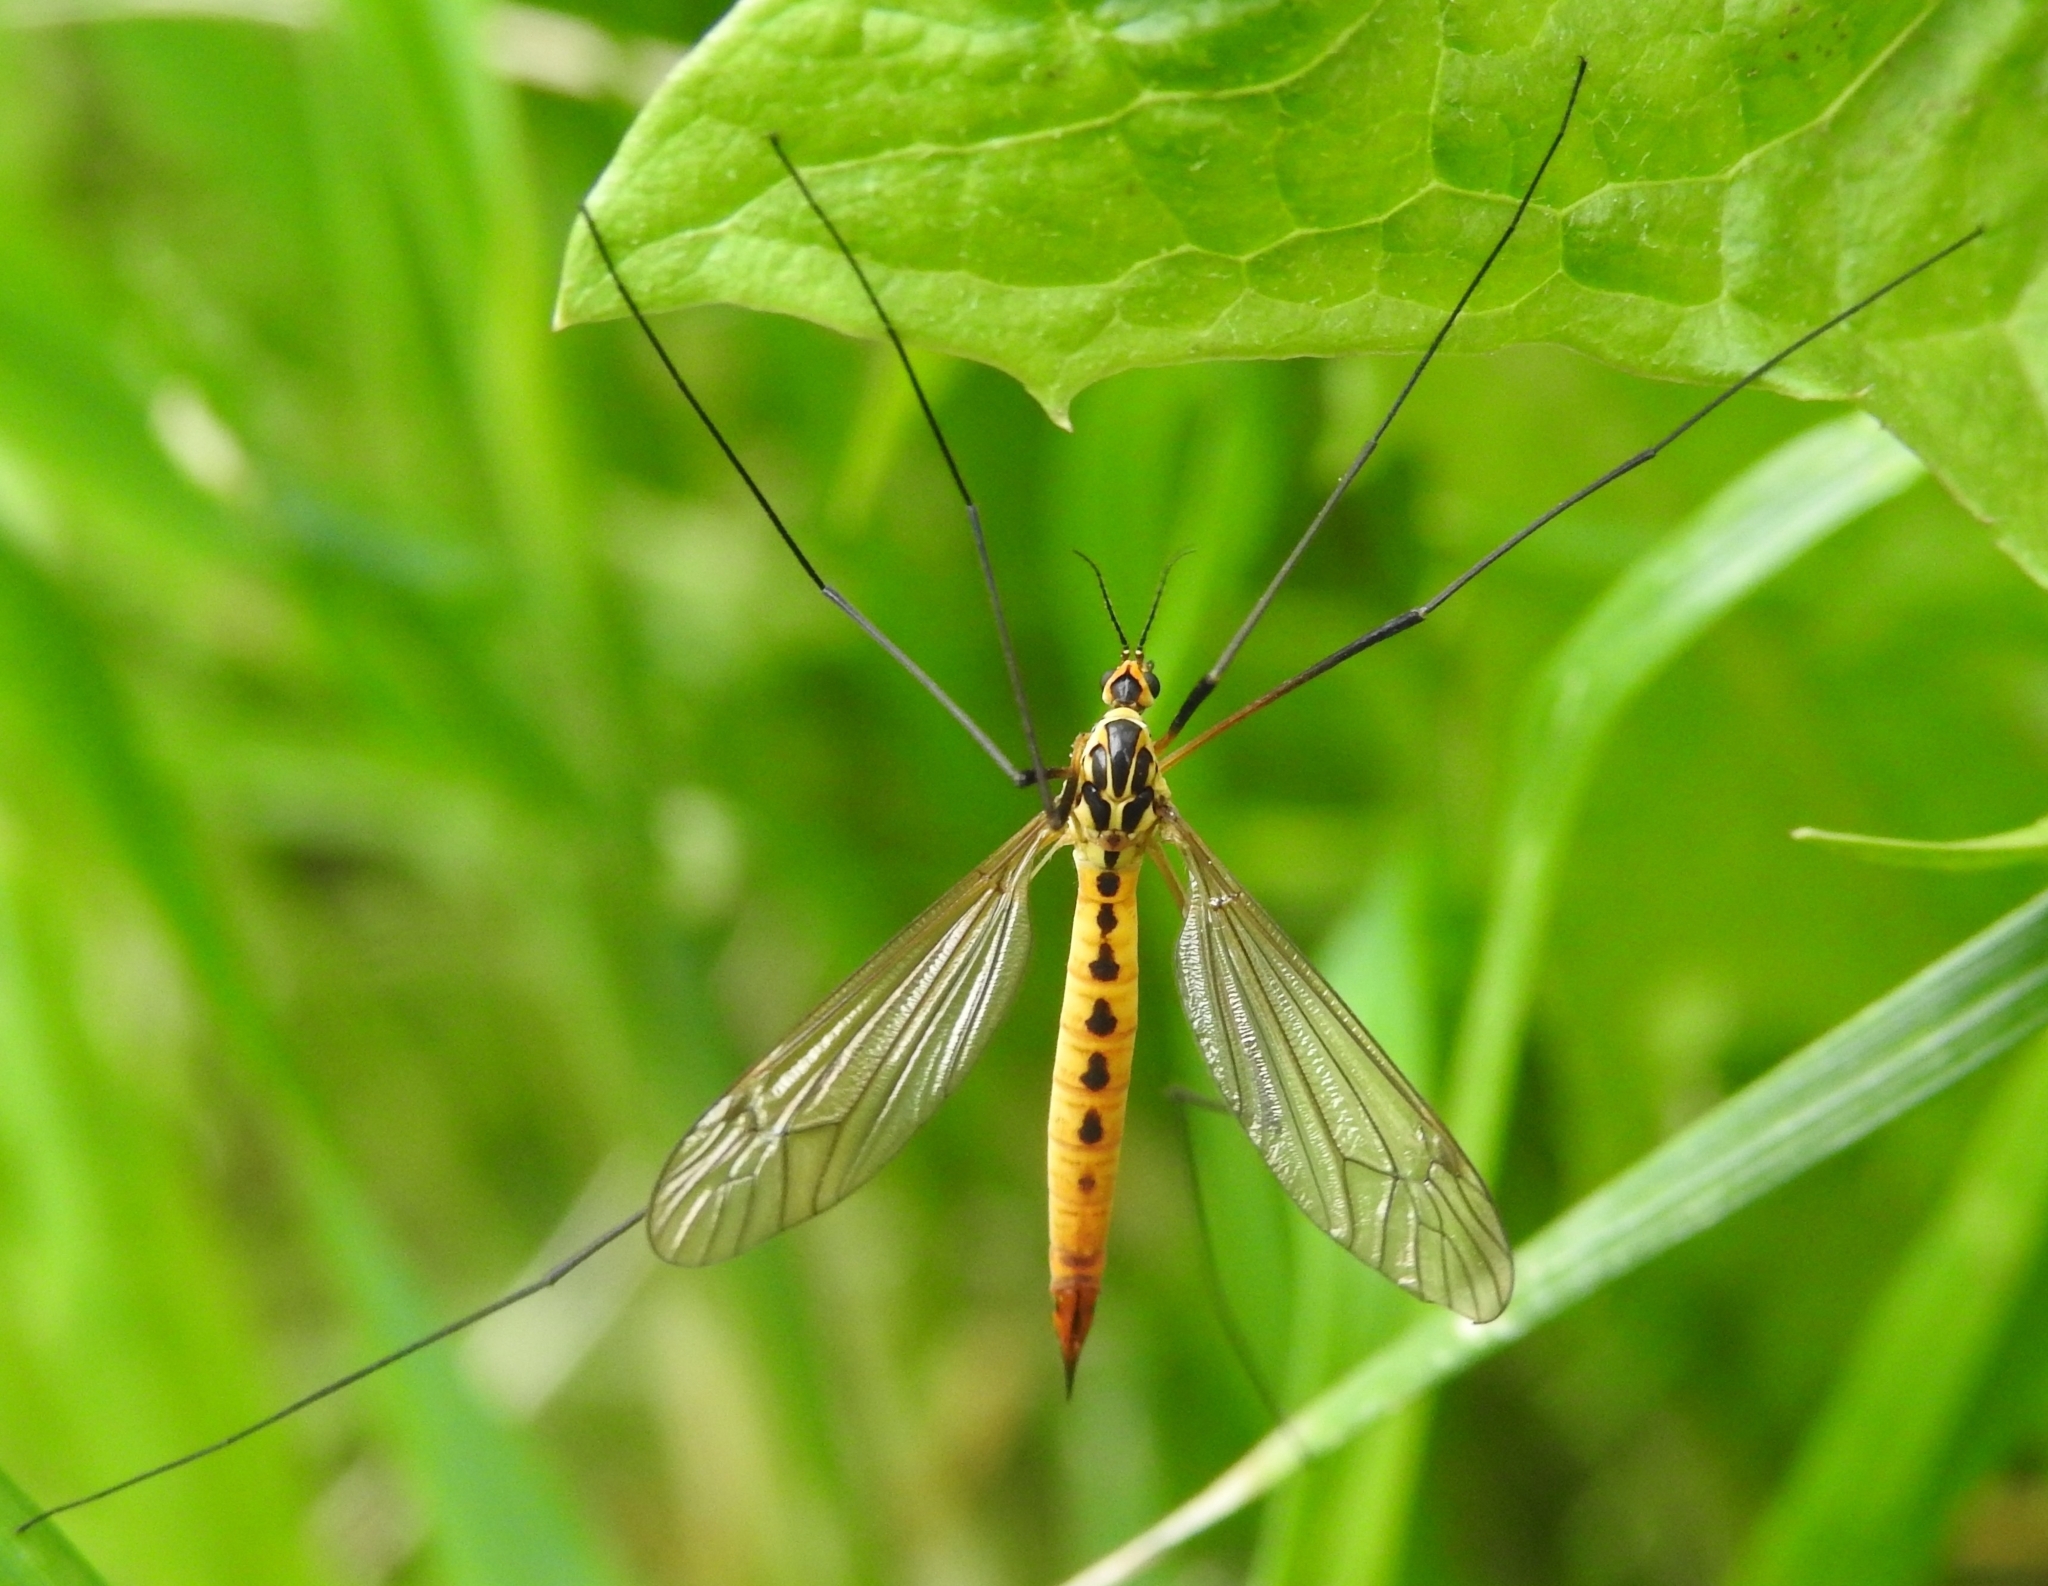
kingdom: Animalia
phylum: Arthropoda
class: Insecta
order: Diptera
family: Tipulidae
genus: Nephrotoma
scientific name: Nephrotoma flavescens
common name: Tiger cranefly
